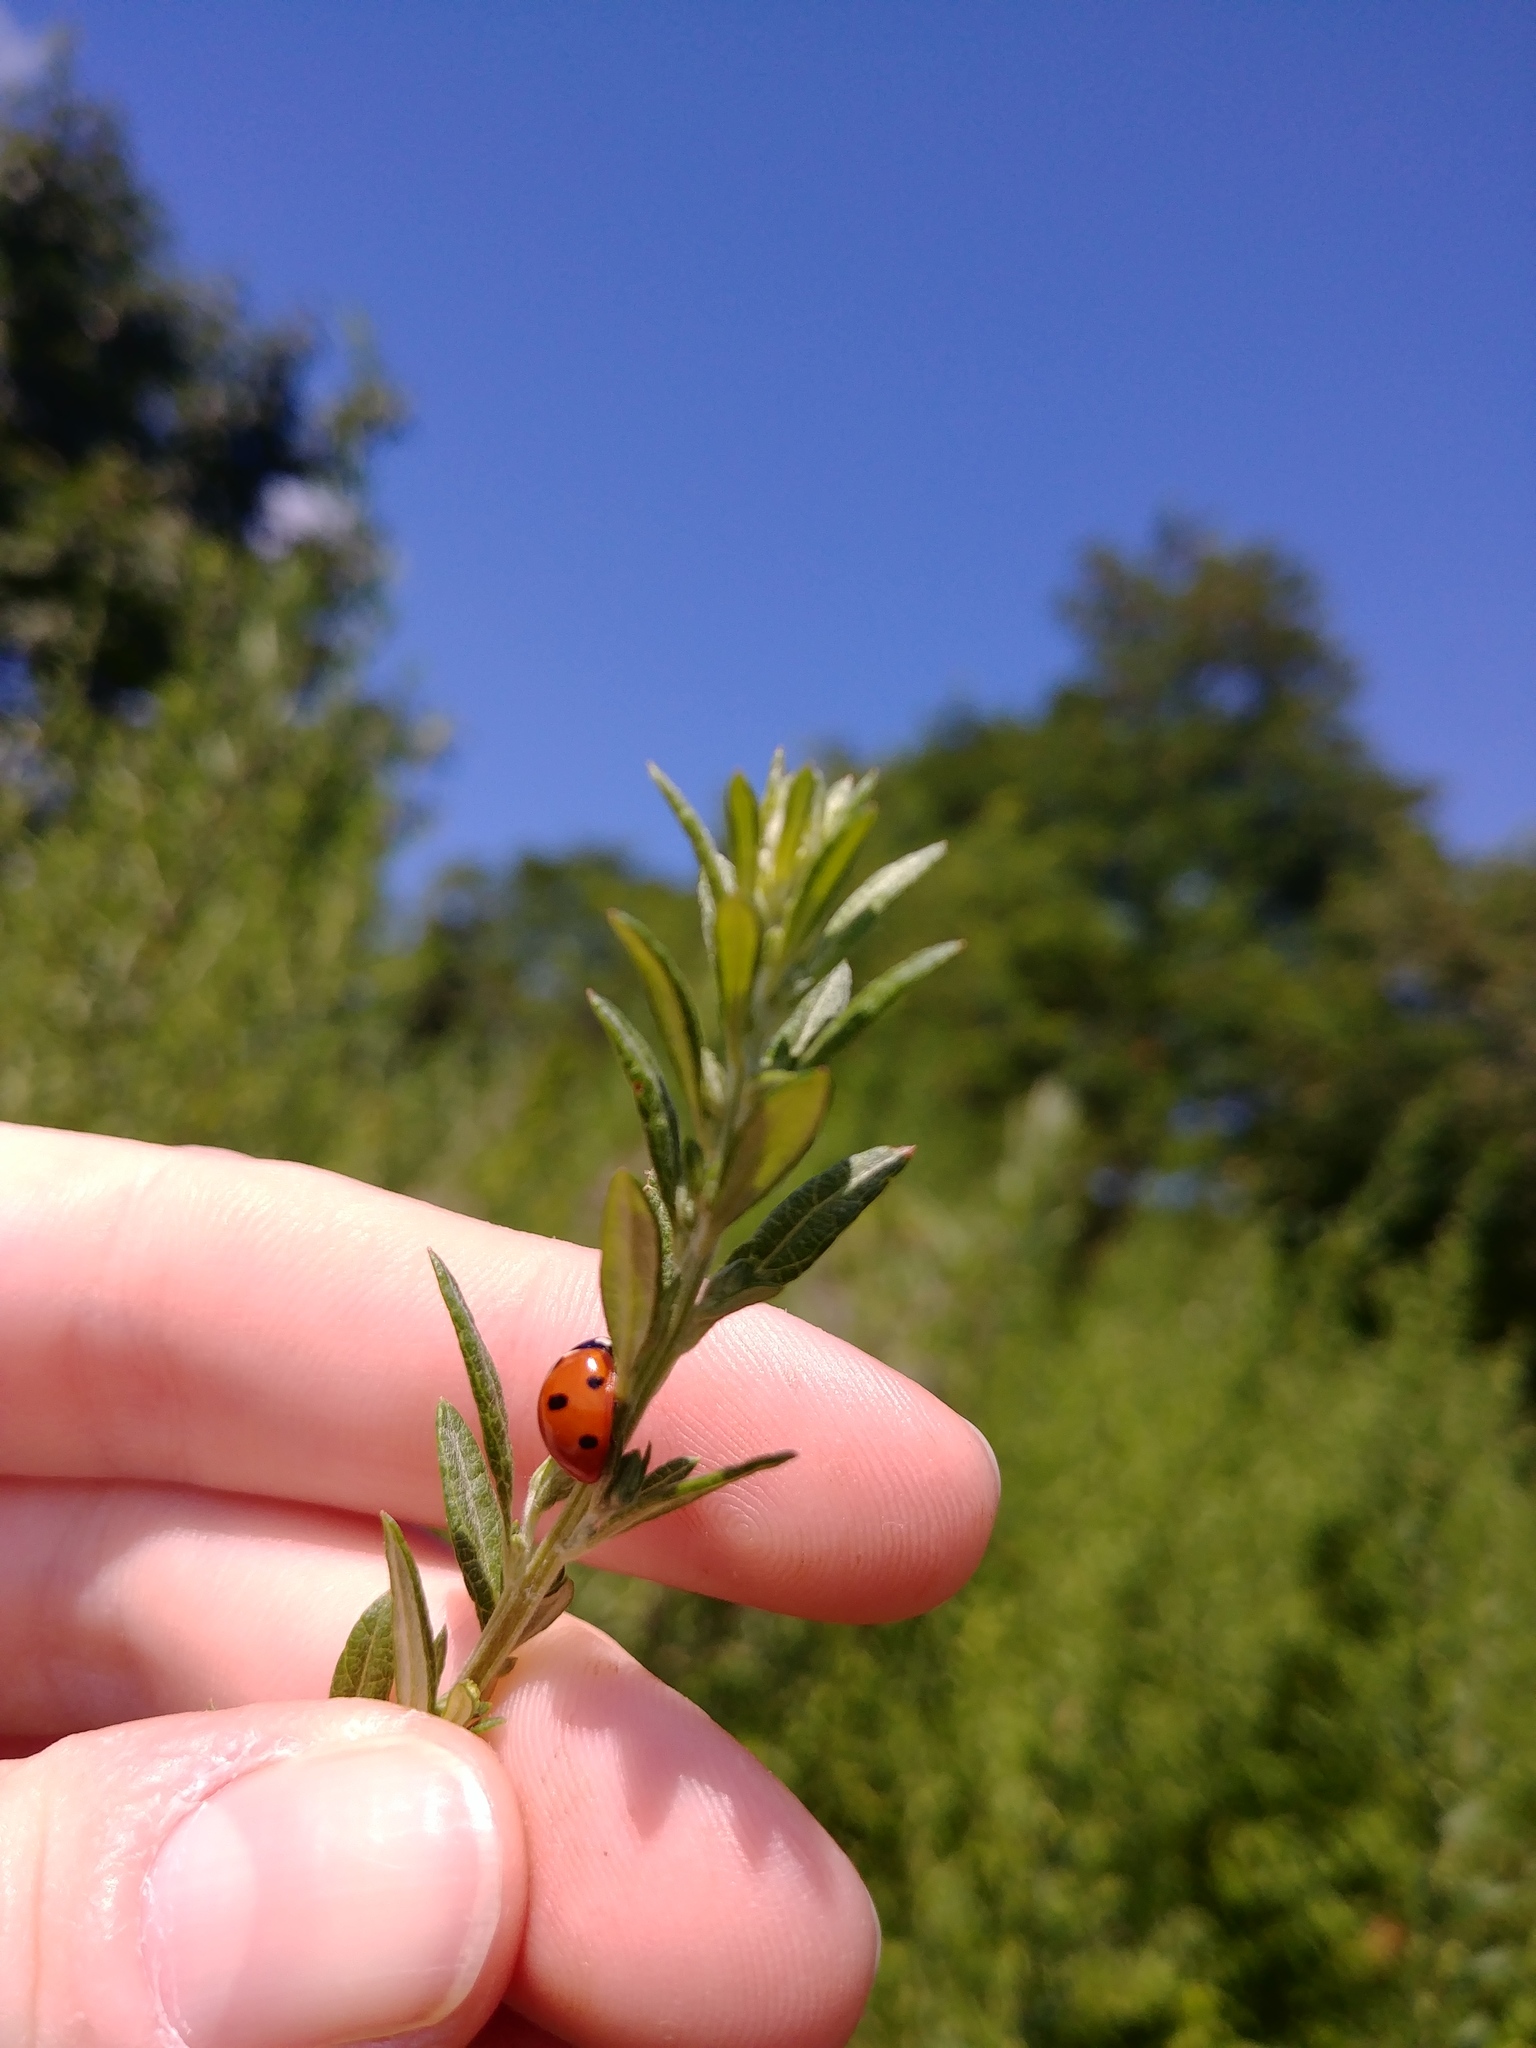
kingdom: Animalia
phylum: Arthropoda
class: Insecta
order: Coleoptera
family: Coccinellidae
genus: Coccinella
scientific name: Coccinella septempunctata
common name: Sevenspotted lady beetle
